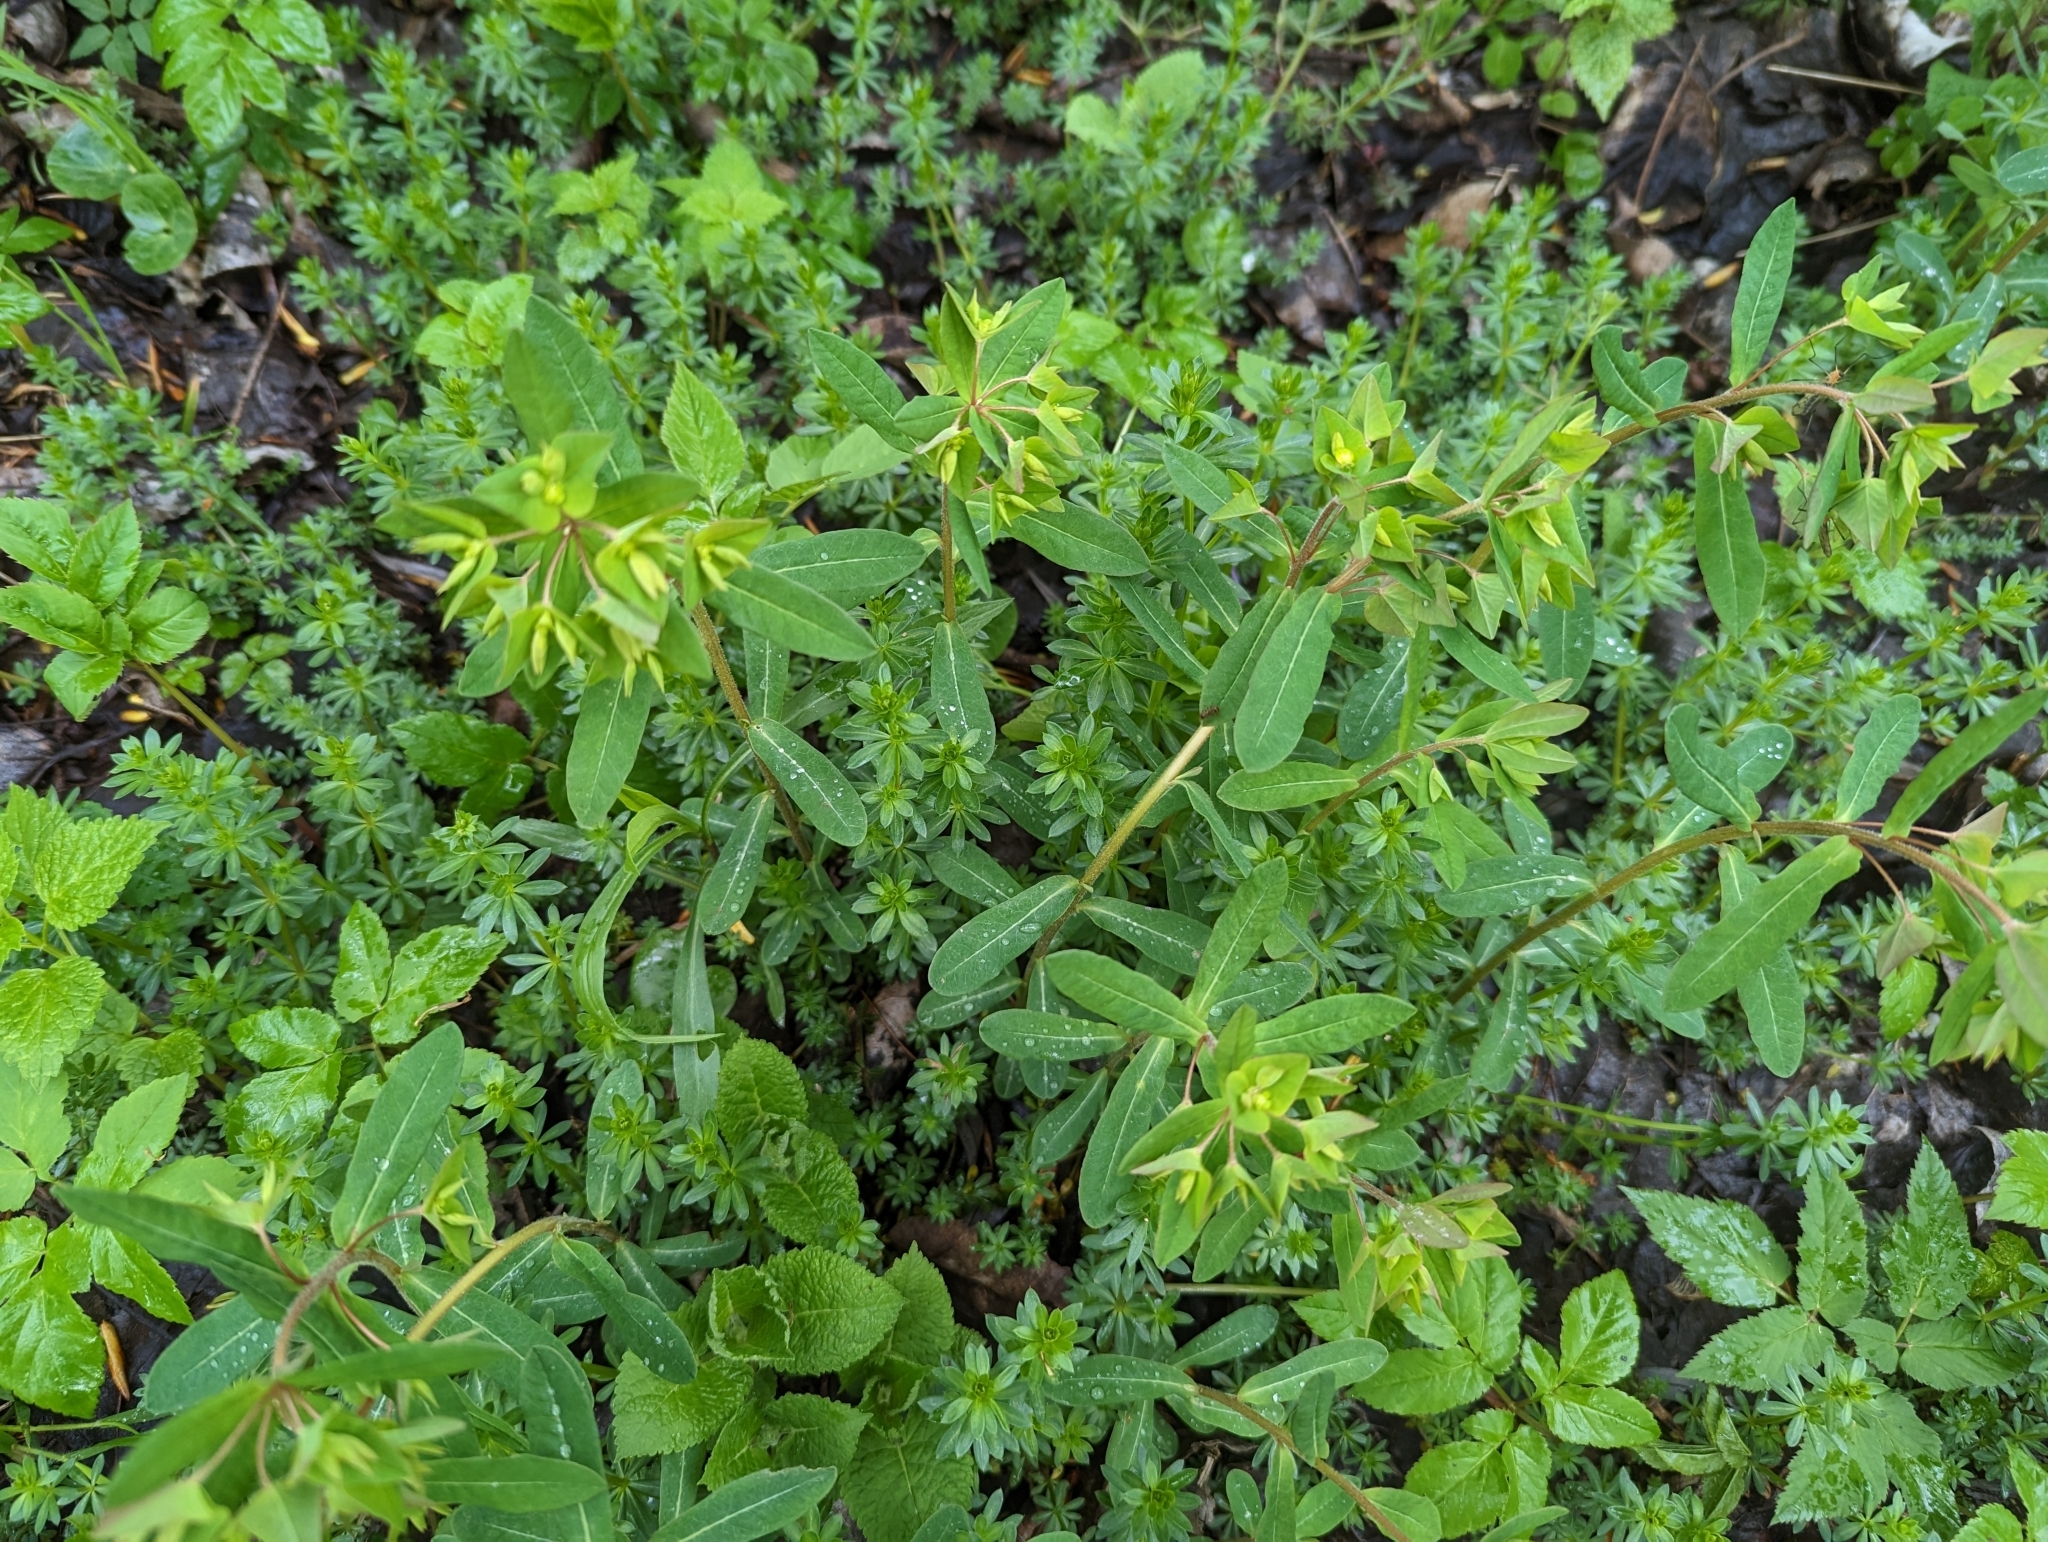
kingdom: Plantae
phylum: Tracheophyta
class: Magnoliopsida
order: Malpighiales
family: Euphorbiaceae
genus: Euphorbia
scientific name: Euphorbia dulcis
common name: Sweet spurge
